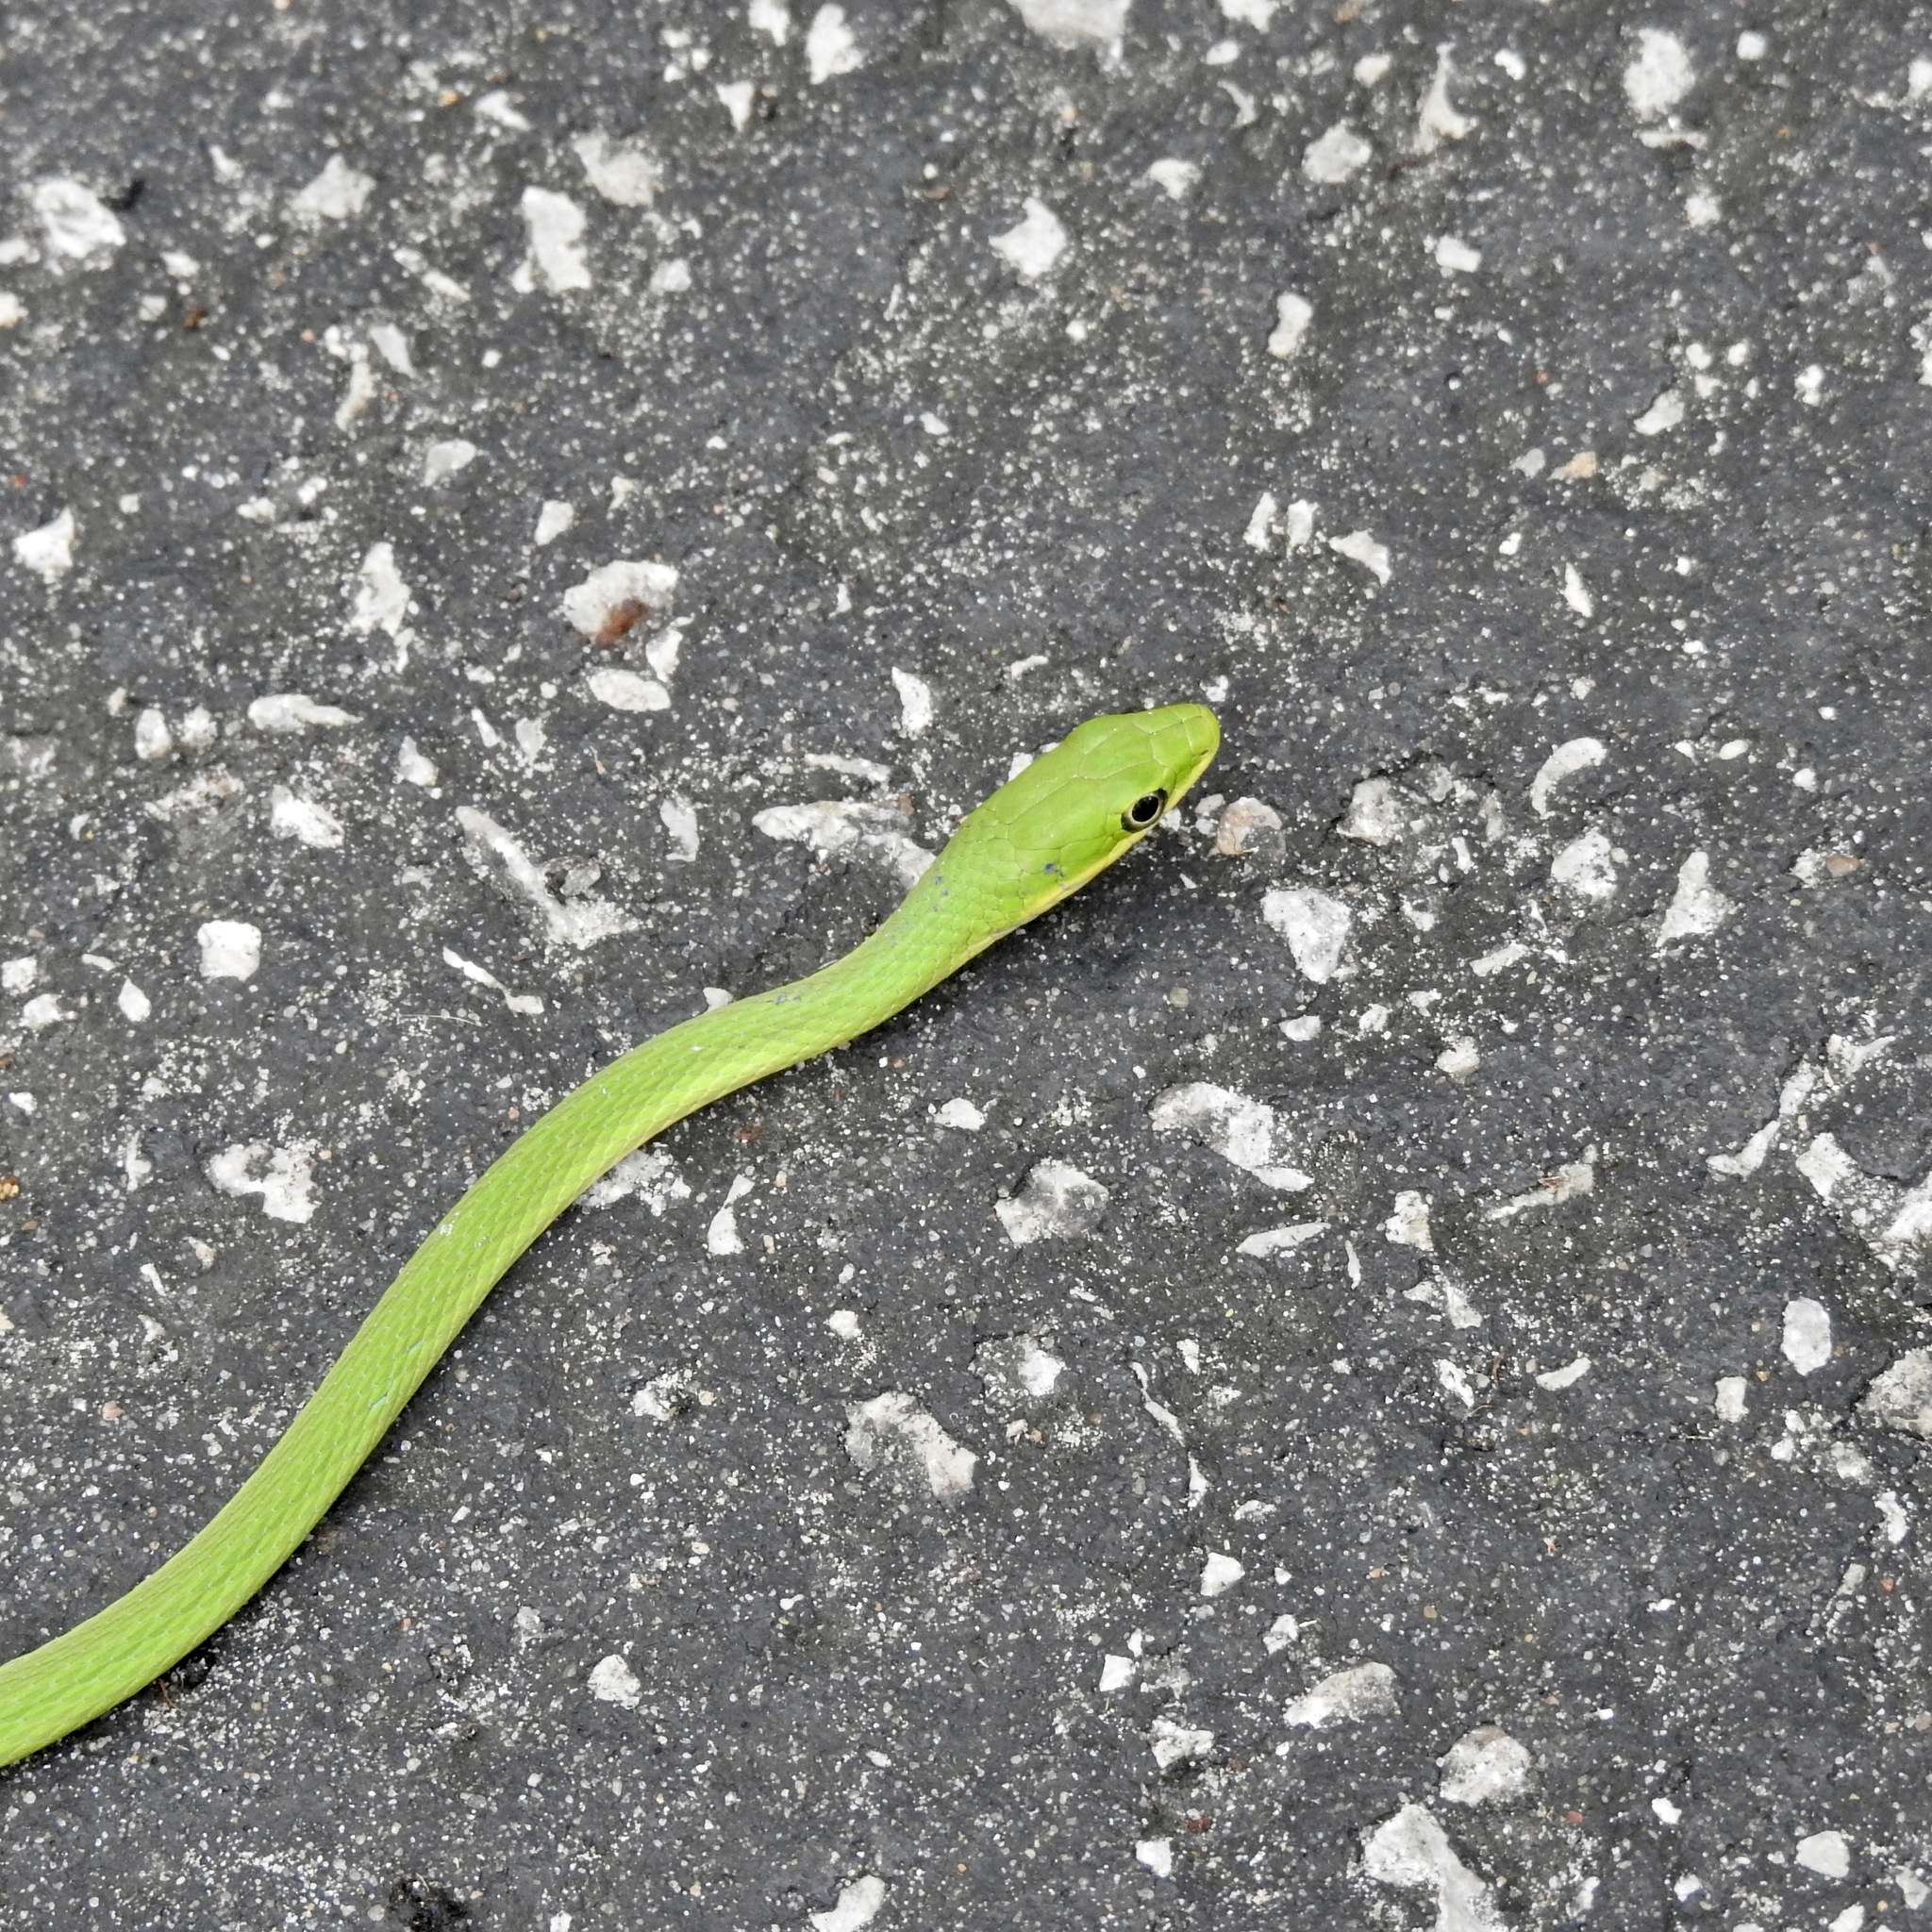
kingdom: Animalia
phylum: Chordata
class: Squamata
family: Colubridae
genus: Opheodrys
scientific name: Opheodrys aestivus
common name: Rough greensnake
